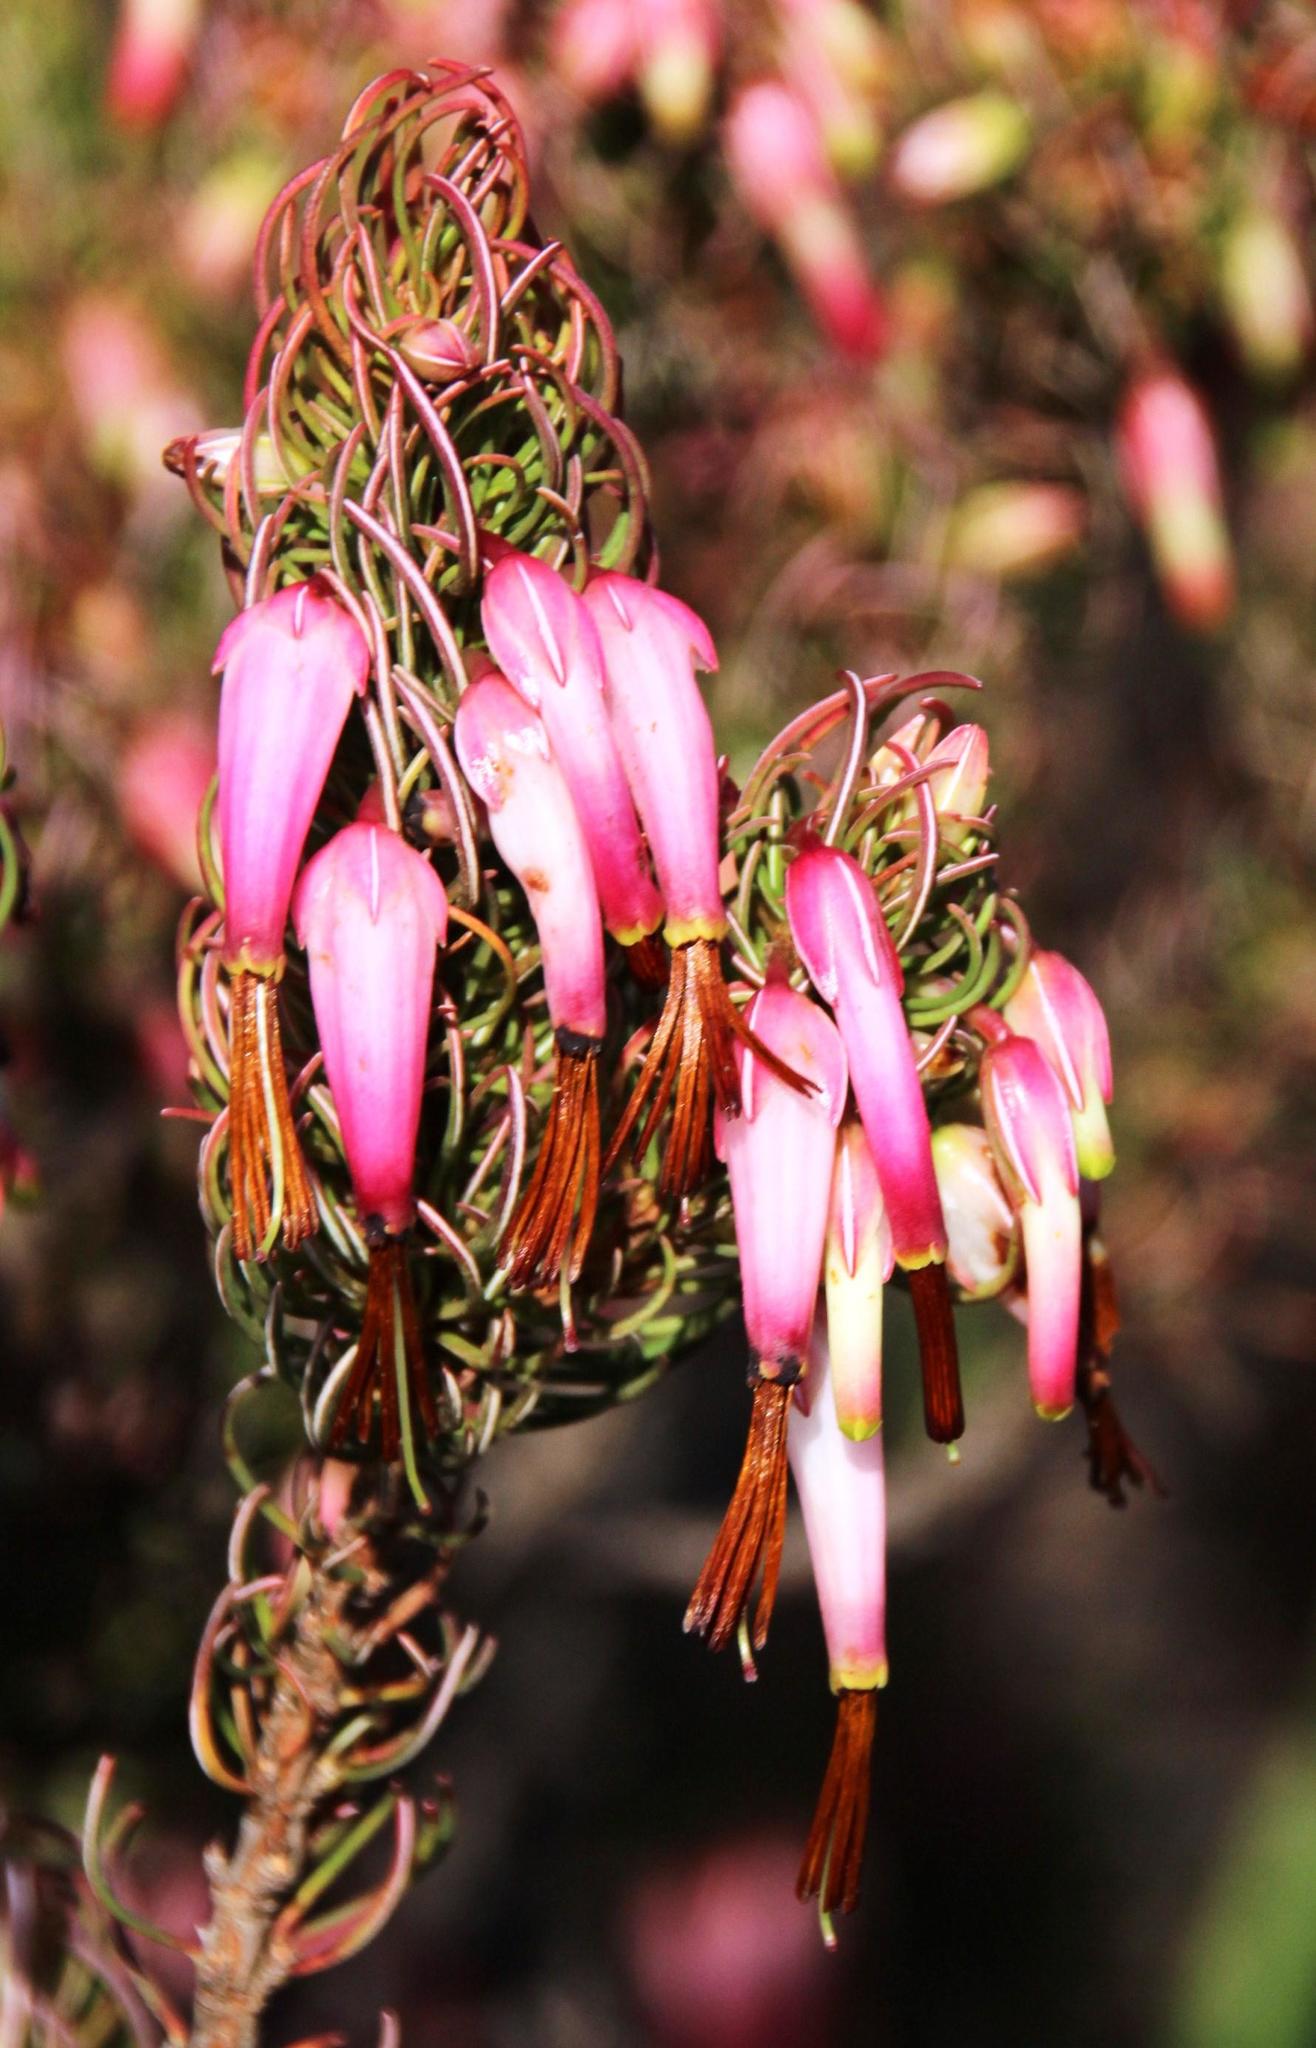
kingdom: Plantae
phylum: Tracheophyta
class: Magnoliopsida
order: Ericales
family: Ericaceae
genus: Erica
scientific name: Erica plukenetii
